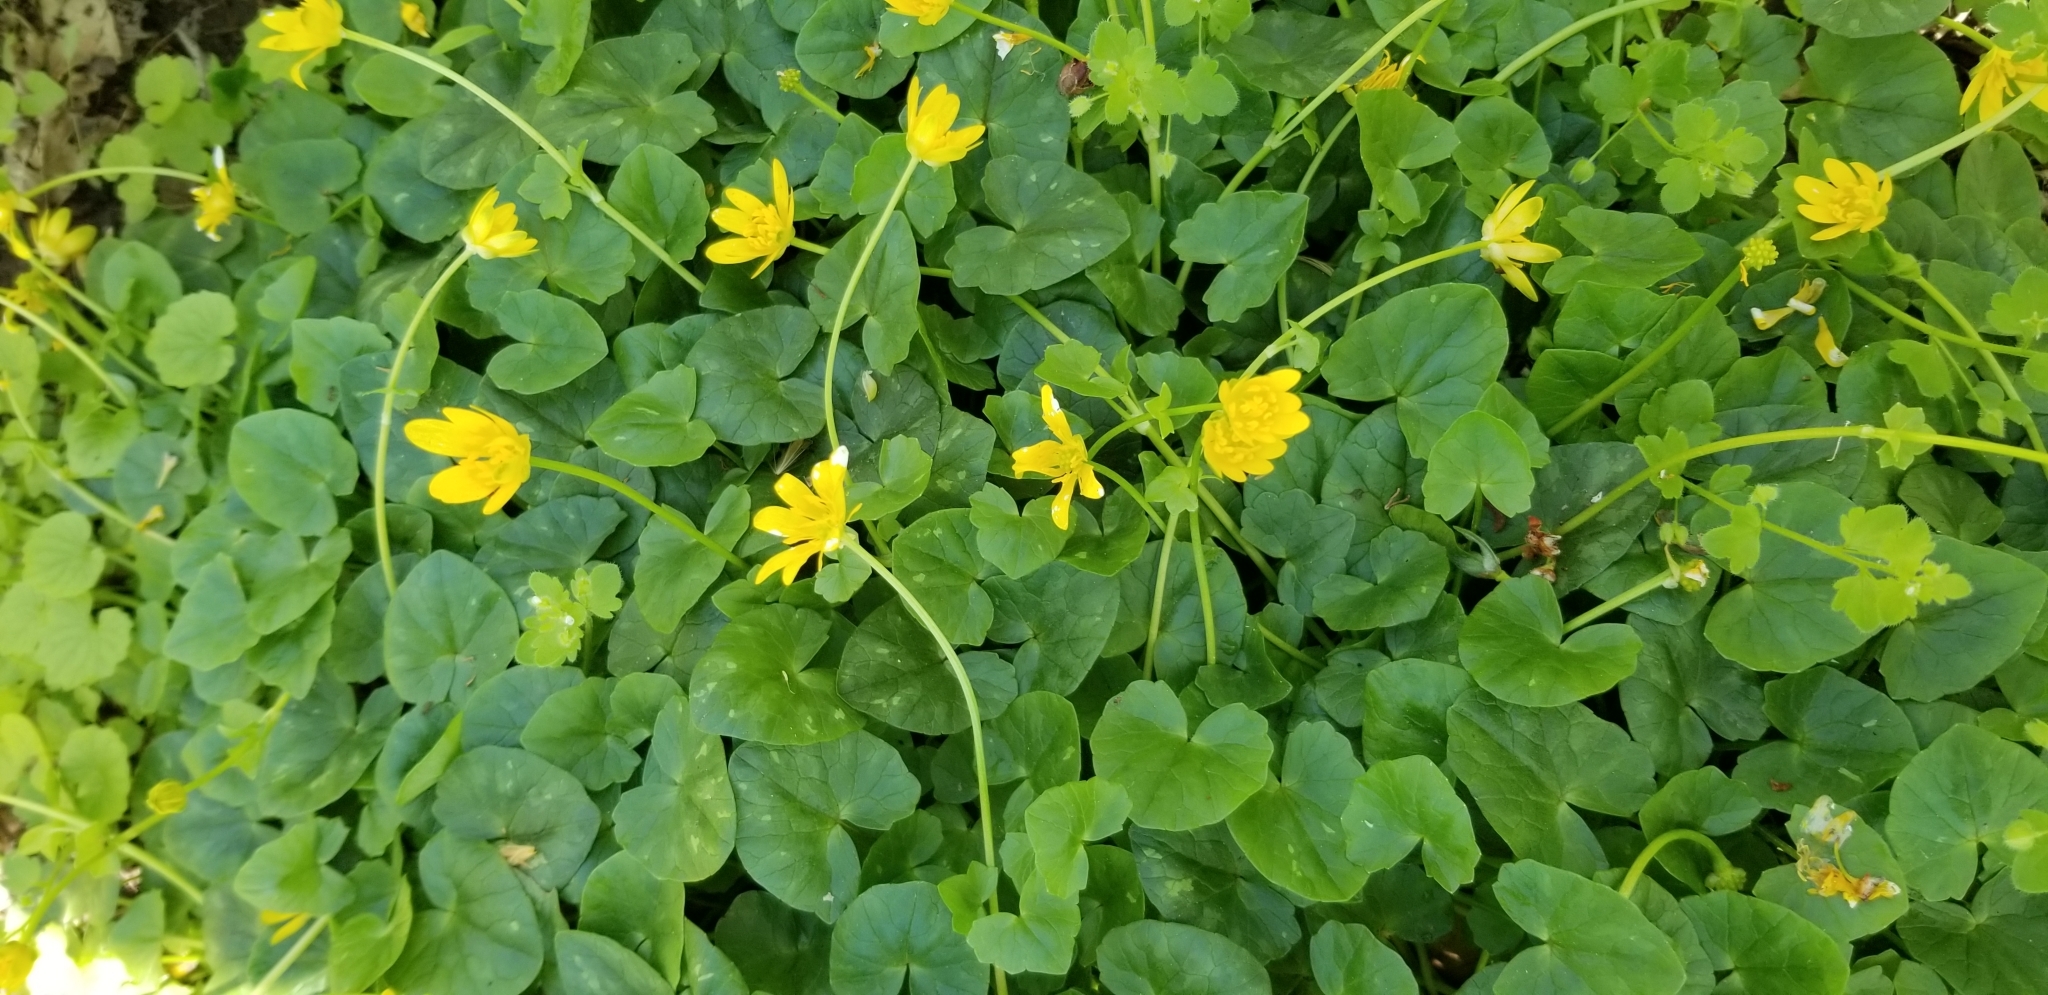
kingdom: Plantae
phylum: Tracheophyta
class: Magnoliopsida
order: Ranunculales
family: Ranunculaceae
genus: Ficaria
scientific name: Ficaria verna
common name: Lesser celandine
